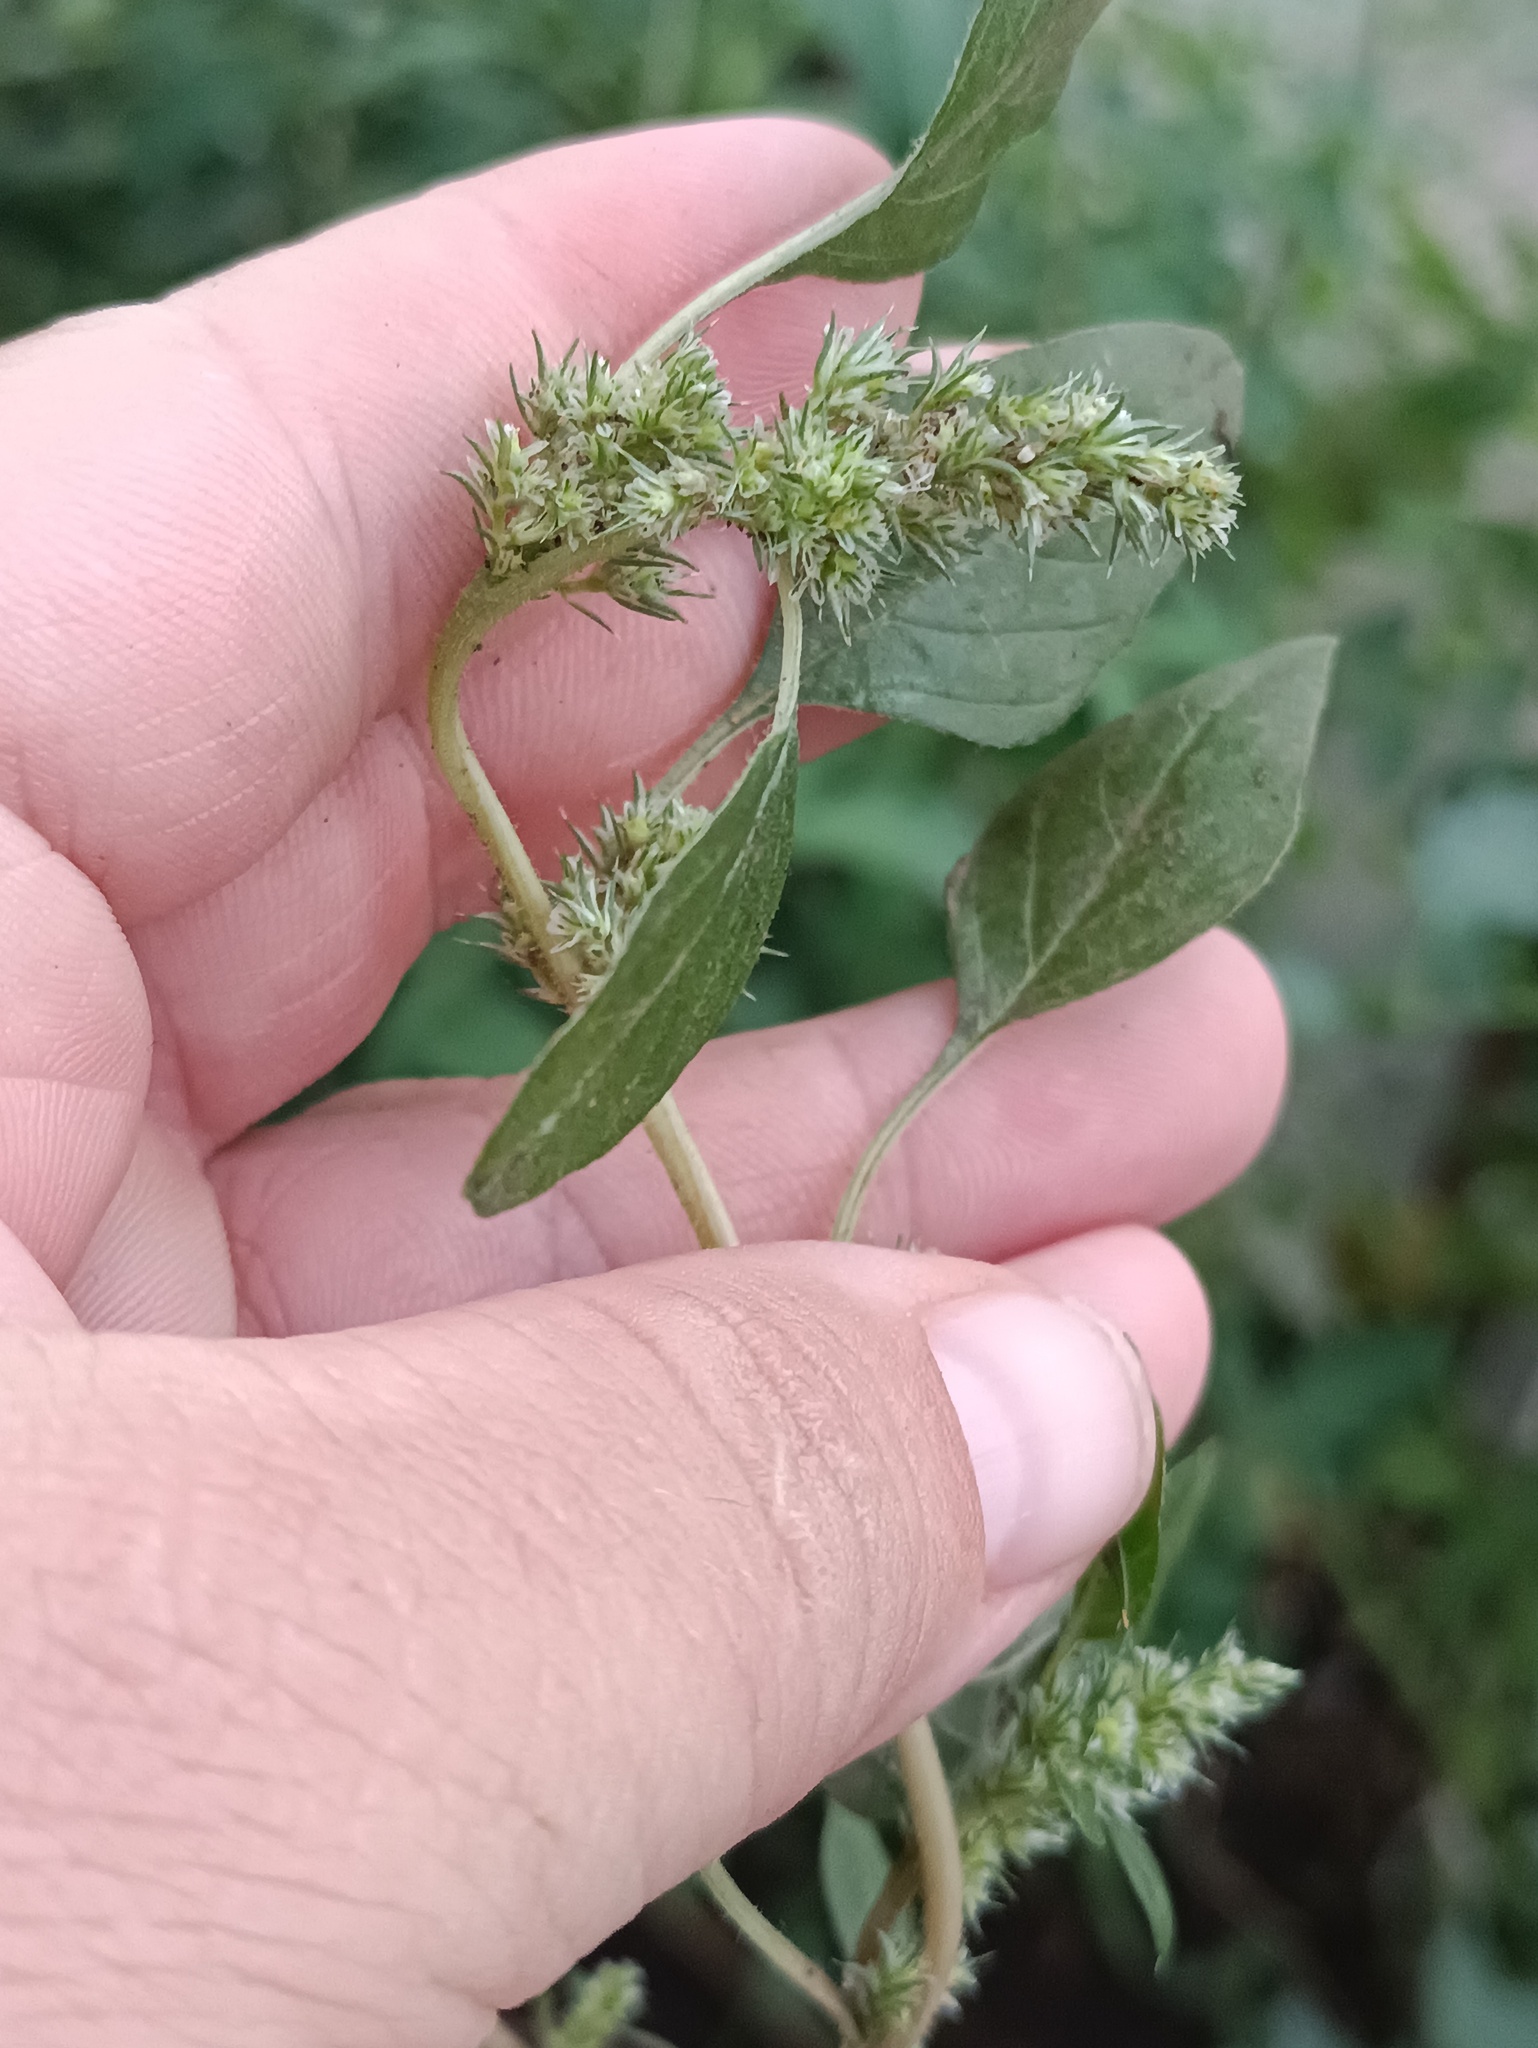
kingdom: Plantae
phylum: Tracheophyta
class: Magnoliopsida
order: Caryophyllales
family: Amaranthaceae
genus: Amaranthus
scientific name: Amaranthus retroflexus
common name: Redroot amaranth
